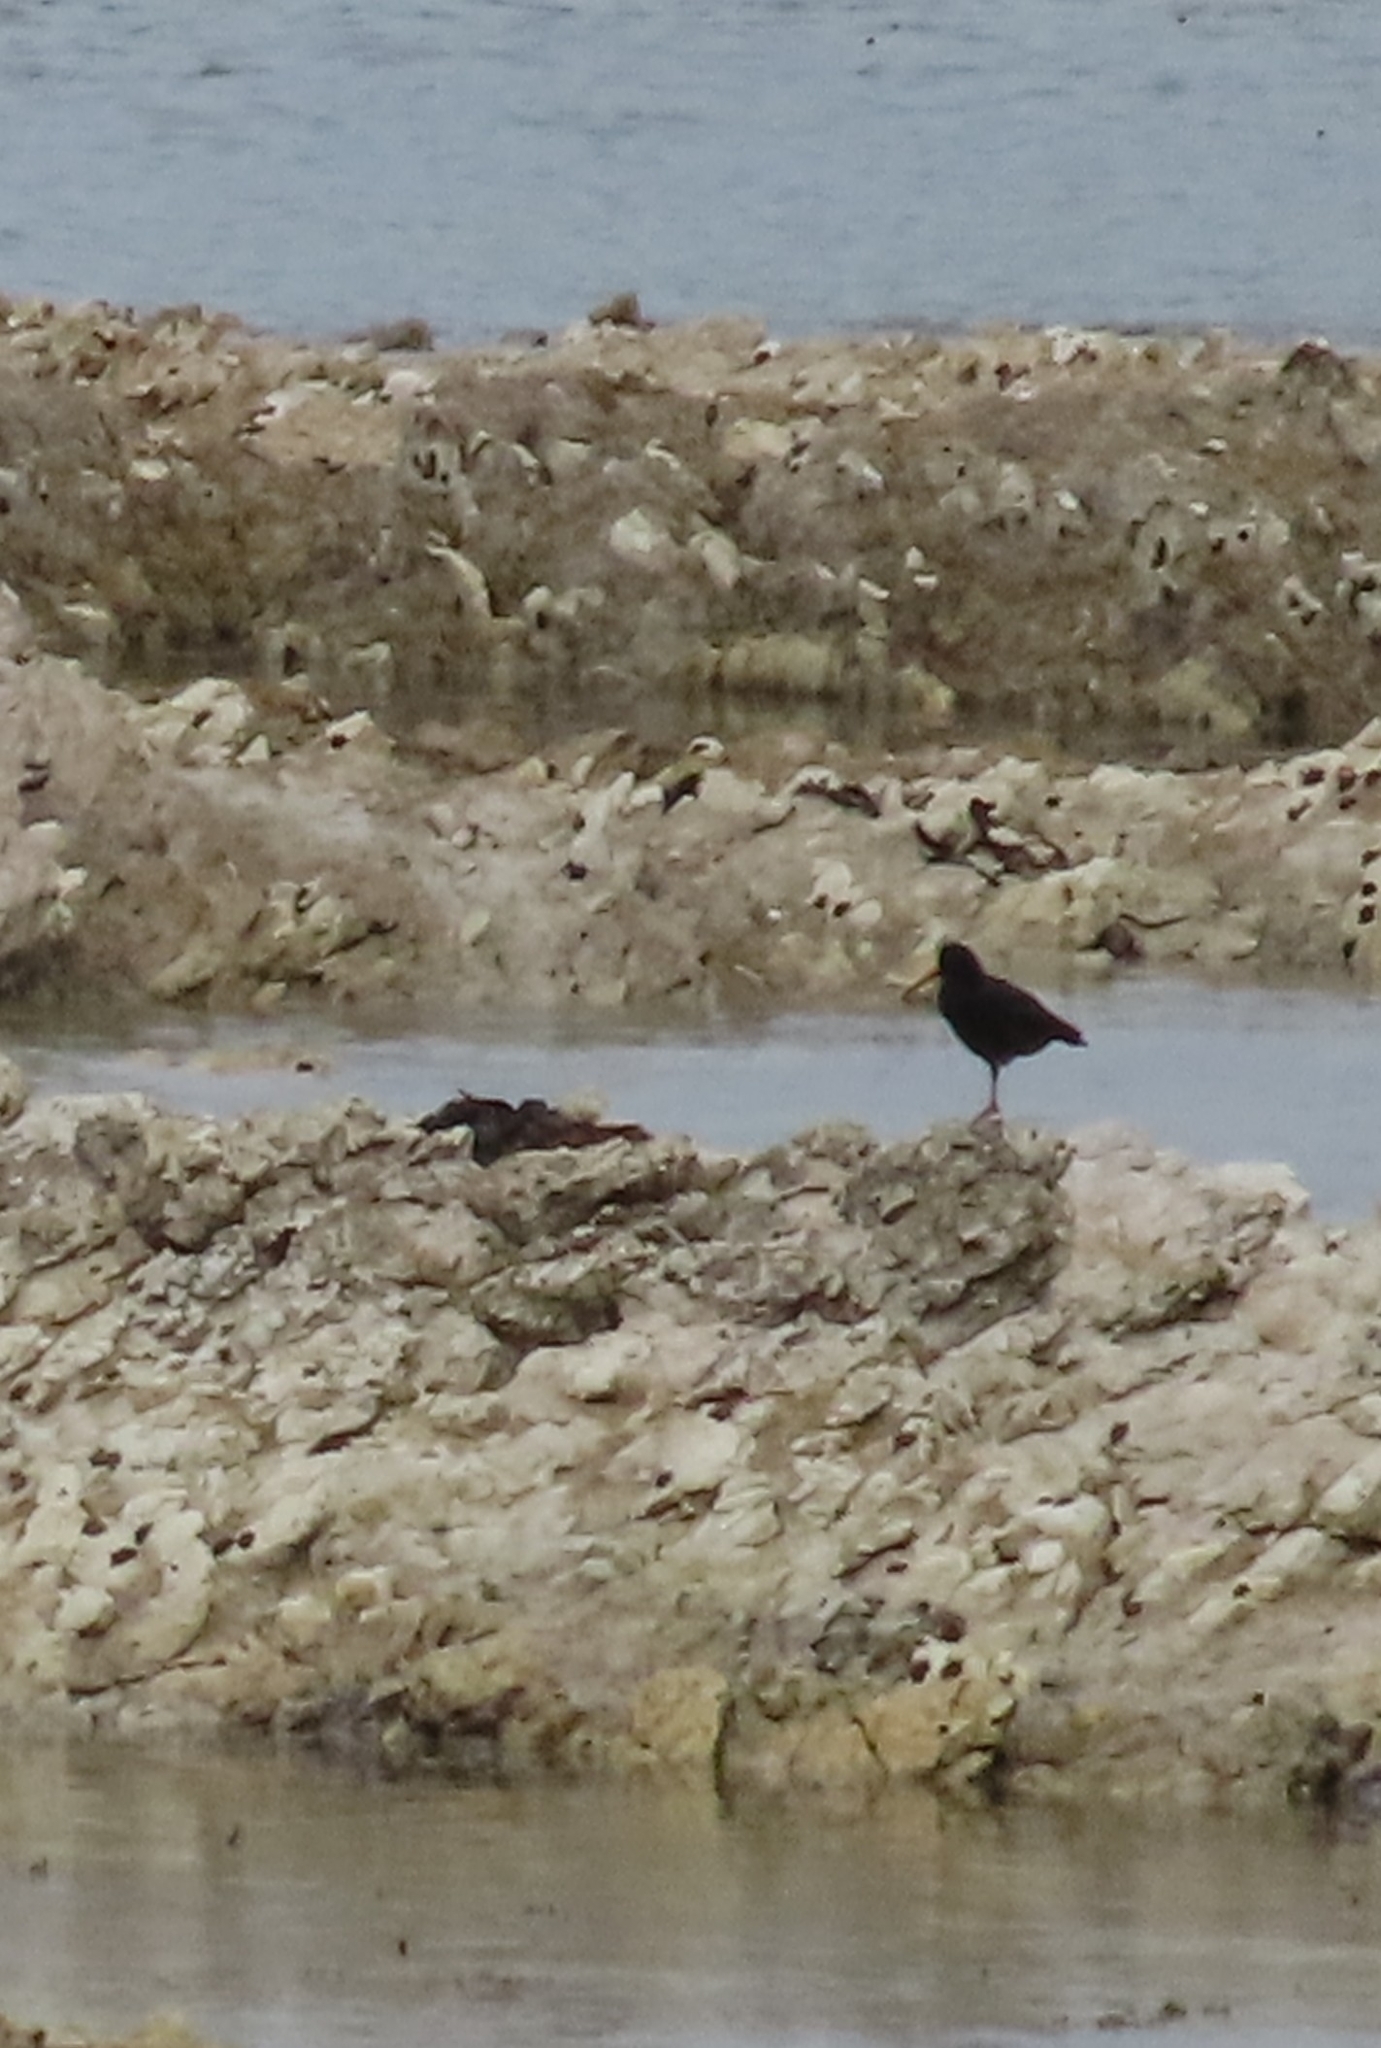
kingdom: Animalia
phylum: Chordata
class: Aves
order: Charadriiformes
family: Haematopodidae
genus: Haematopus
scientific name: Haematopus unicolor
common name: Variable oystercatcher
